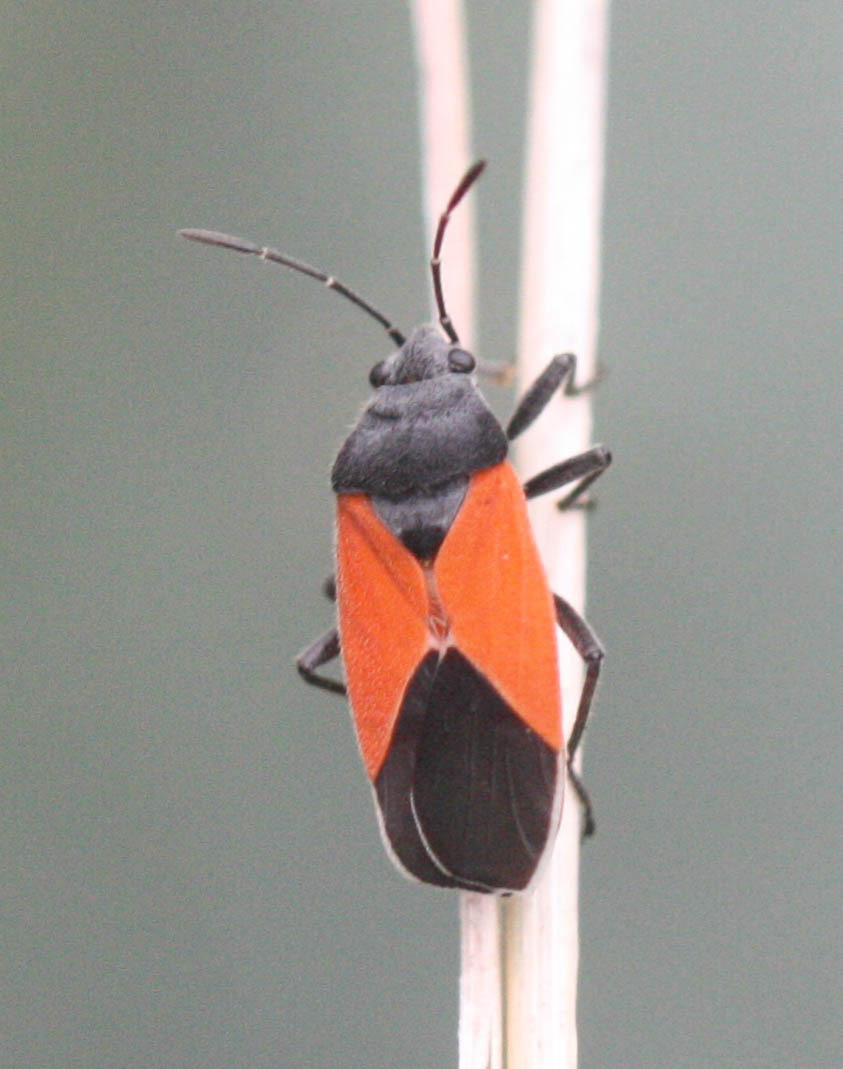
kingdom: Animalia
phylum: Arthropoda
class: Insecta
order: Hemiptera
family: Lygaeidae
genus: Melanopleurus
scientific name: Melanopleurus belfragei
